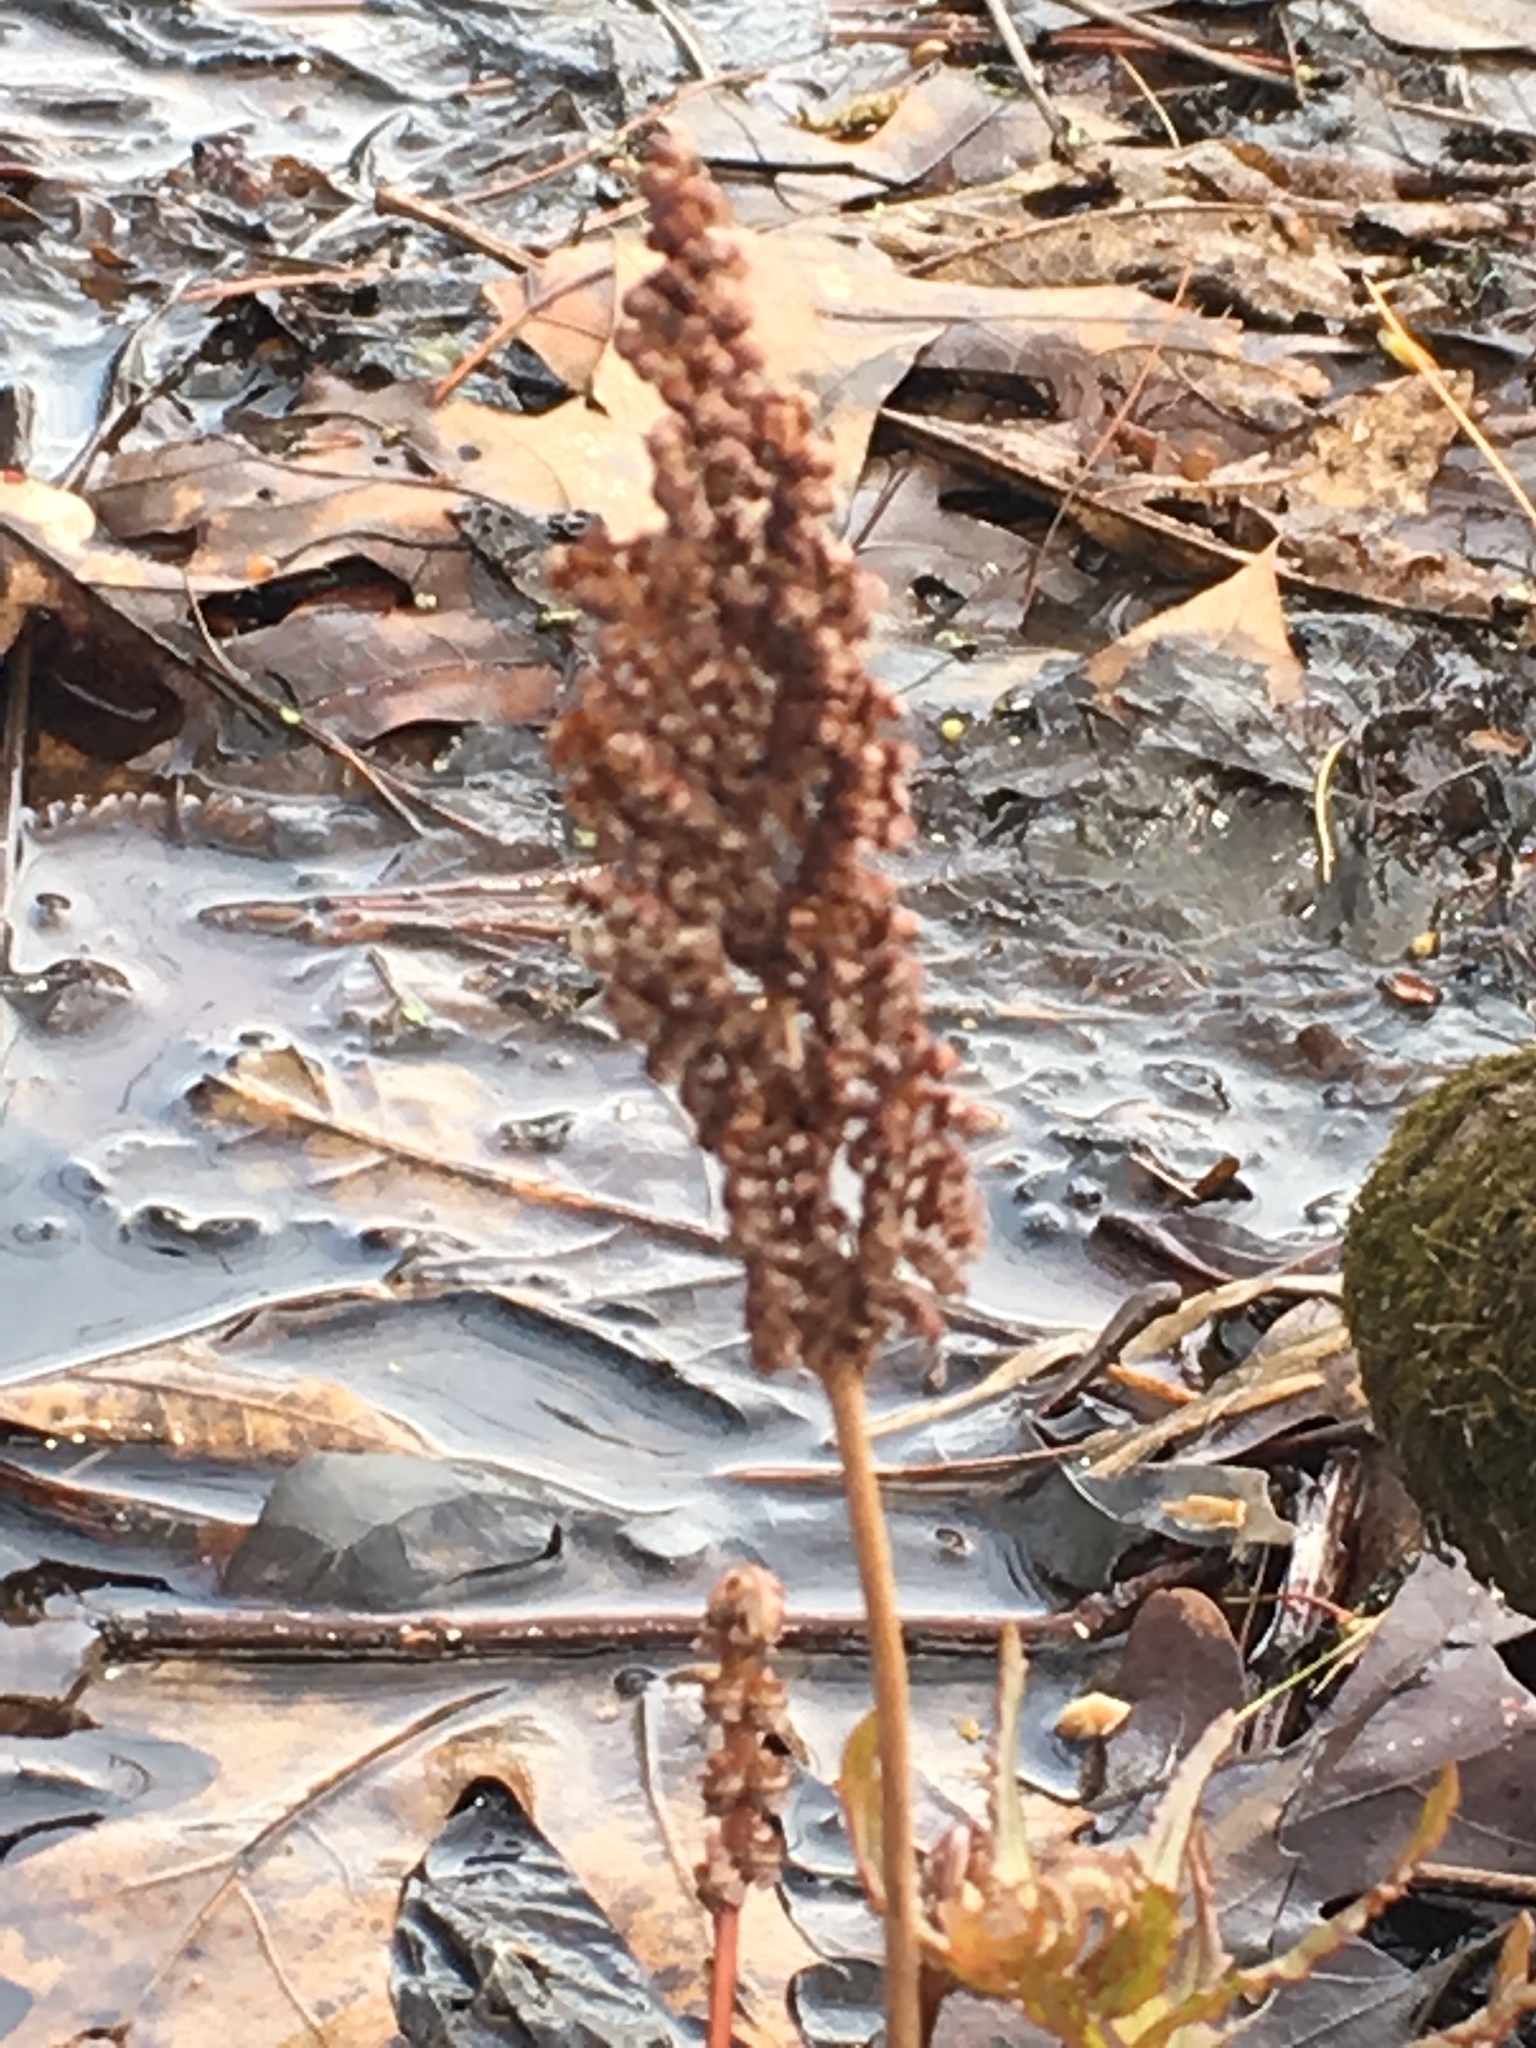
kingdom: Plantae
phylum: Tracheophyta
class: Polypodiopsida
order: Polypodiales
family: Onocleaceae
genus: Onoclea
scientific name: Onoclea sensibilis
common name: Sensitive fern
